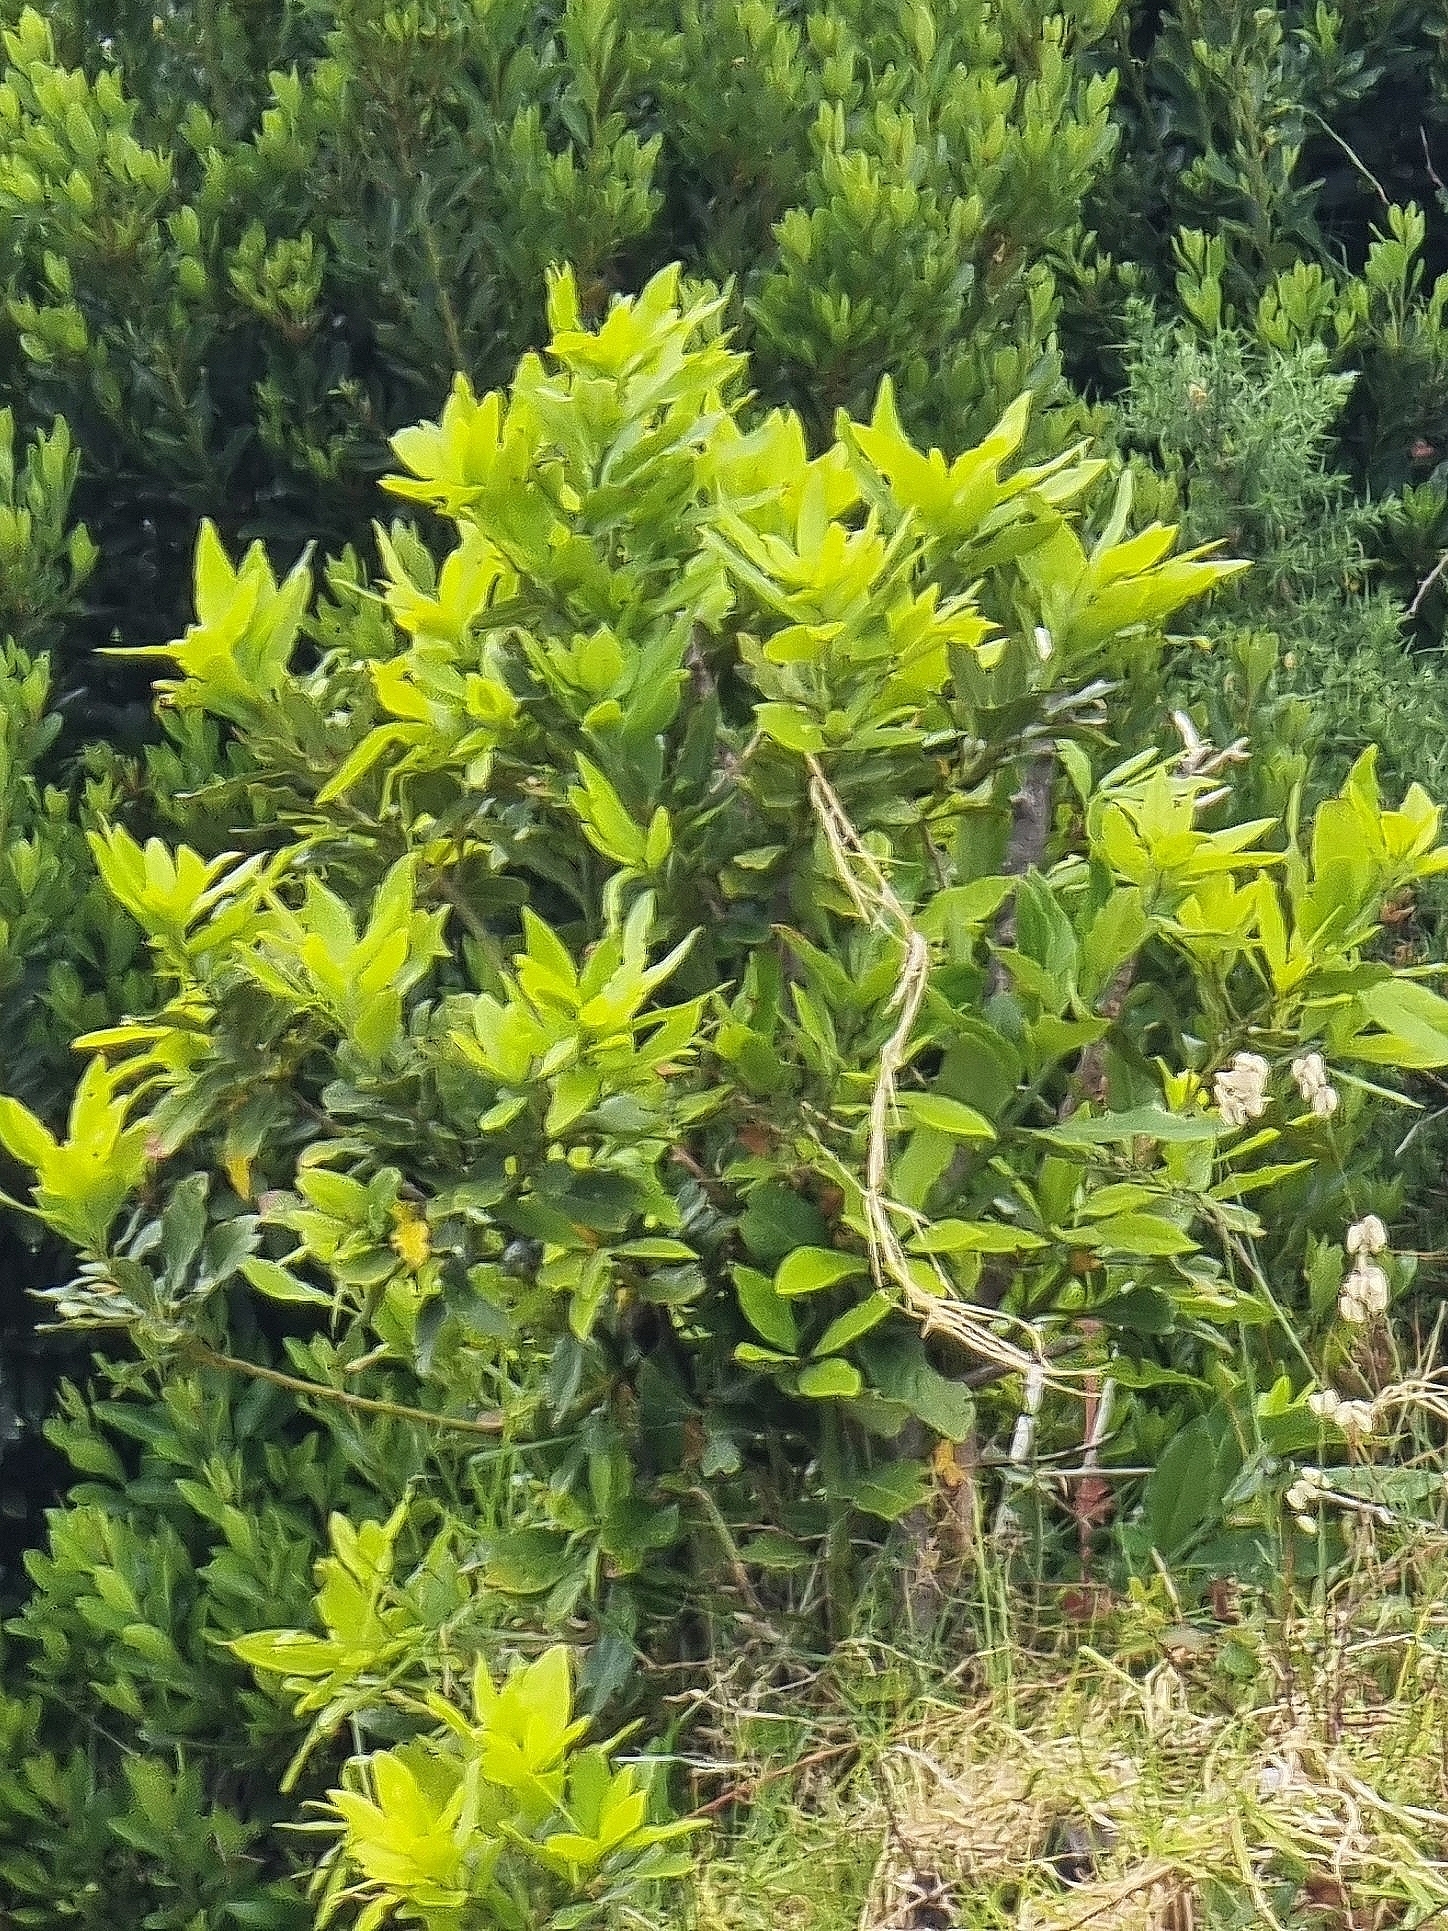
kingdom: Plantae
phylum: Tracheophyta
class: Magnoliopsida
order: Laurales
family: Lauraceae
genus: Laurus
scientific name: Laurus novocanariensis
